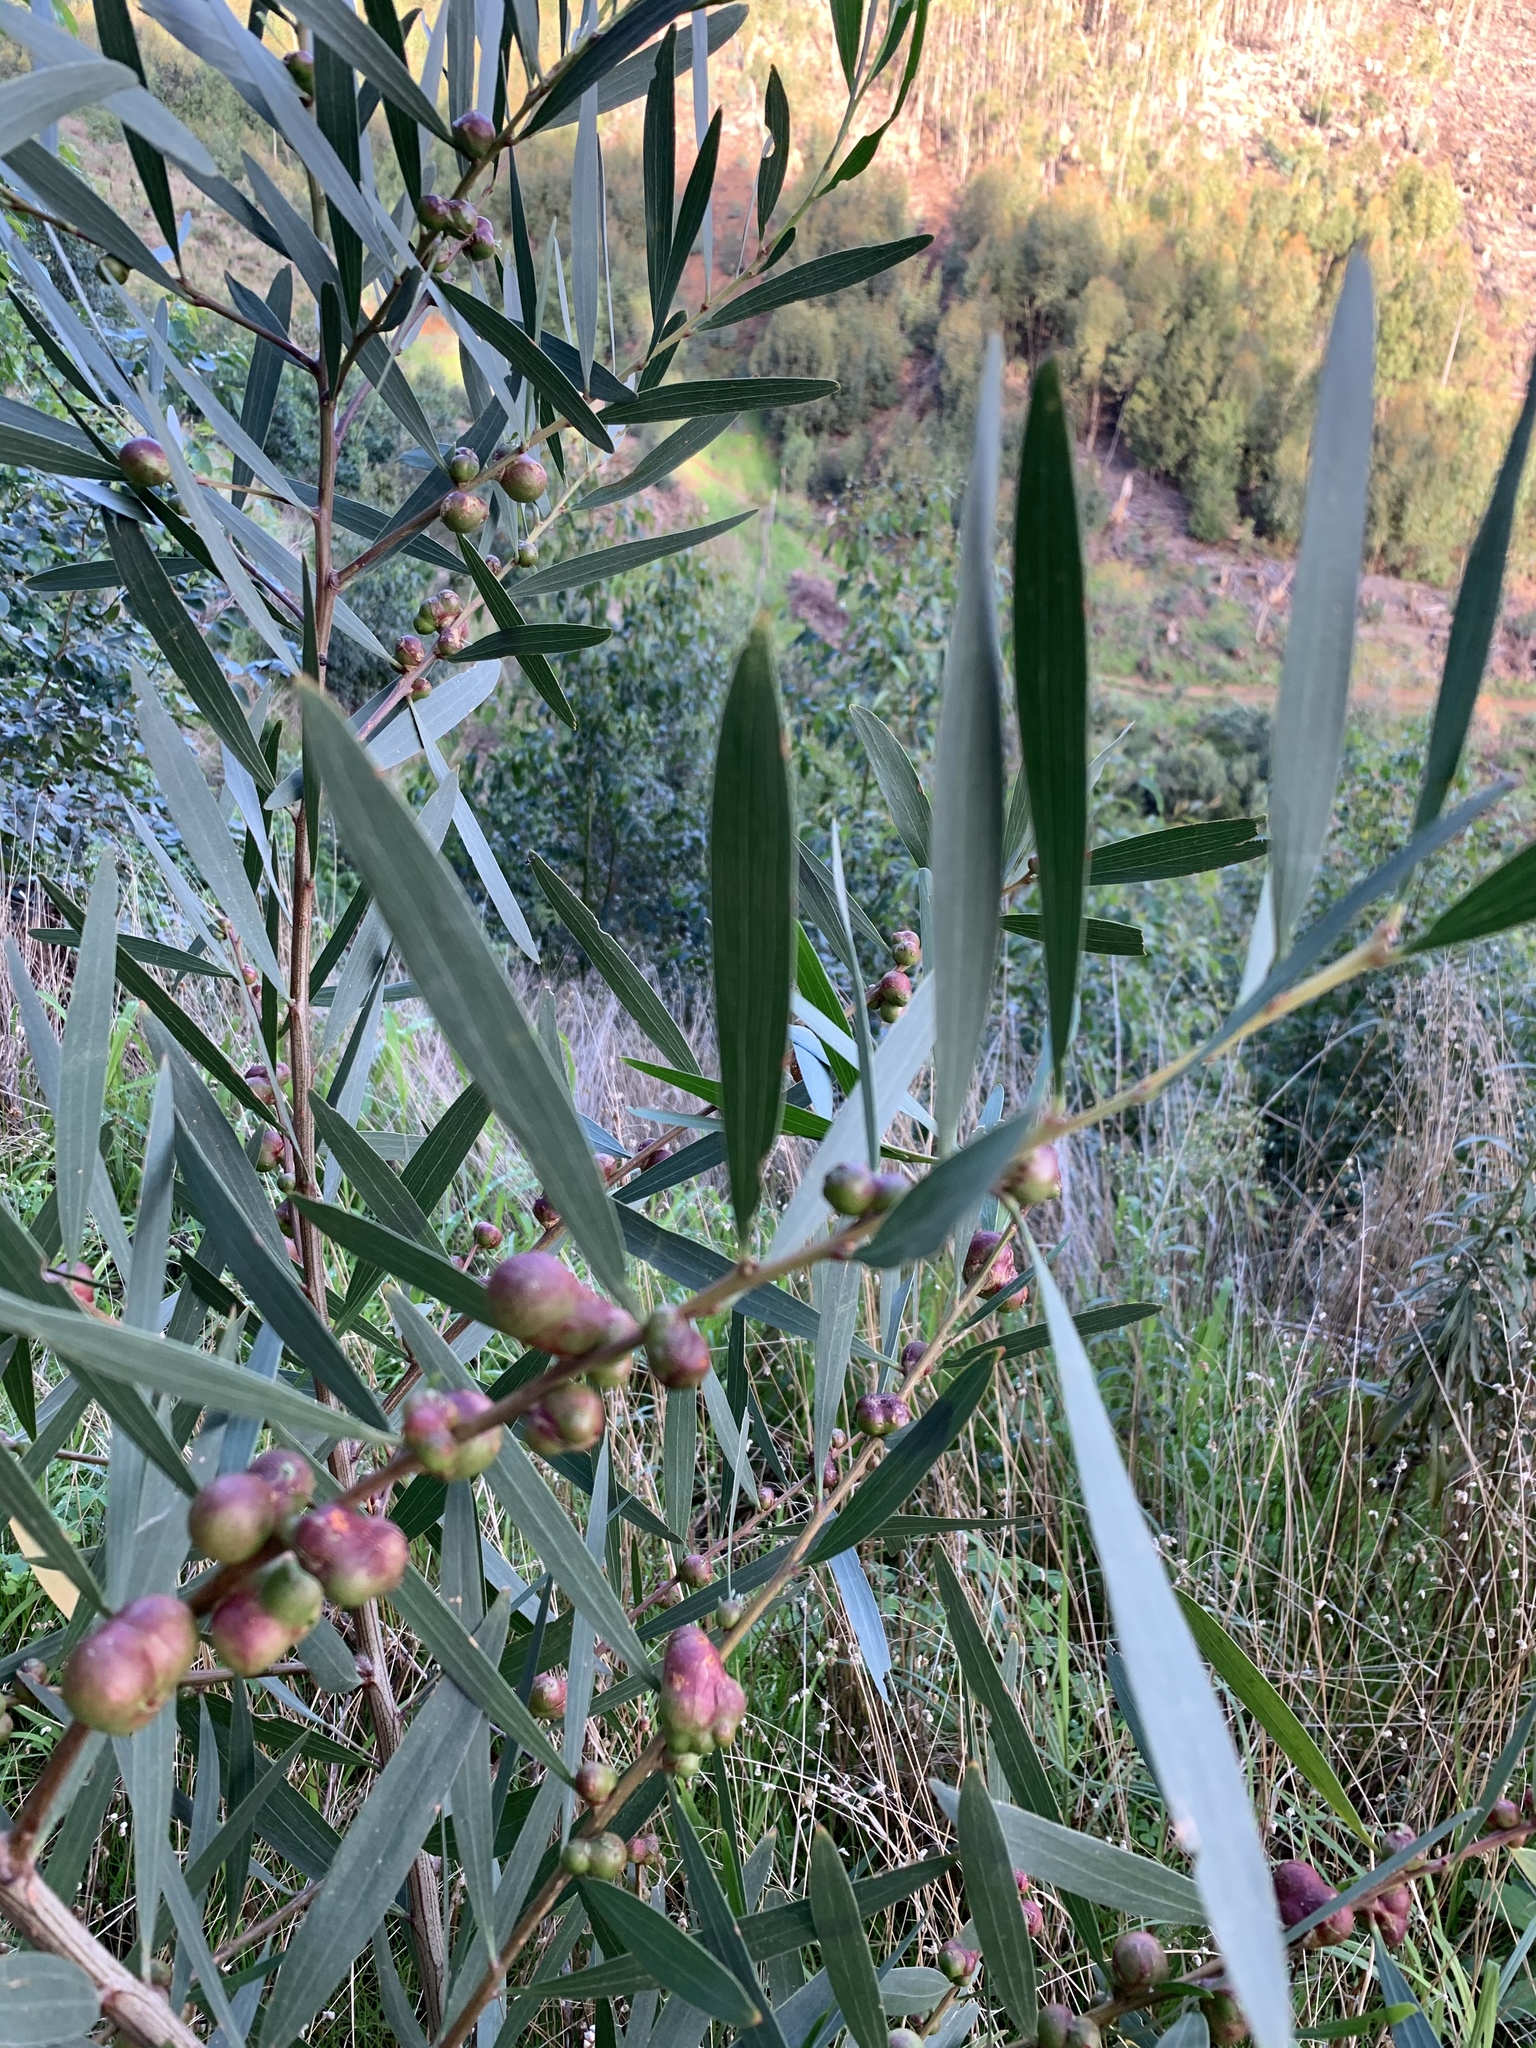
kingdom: Plantae
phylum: Tracheophyta
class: Magnoliopsida
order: Fabales
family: Fabaceae
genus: Acacia
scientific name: Acacia longifolia
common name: Sydney golden wattle
